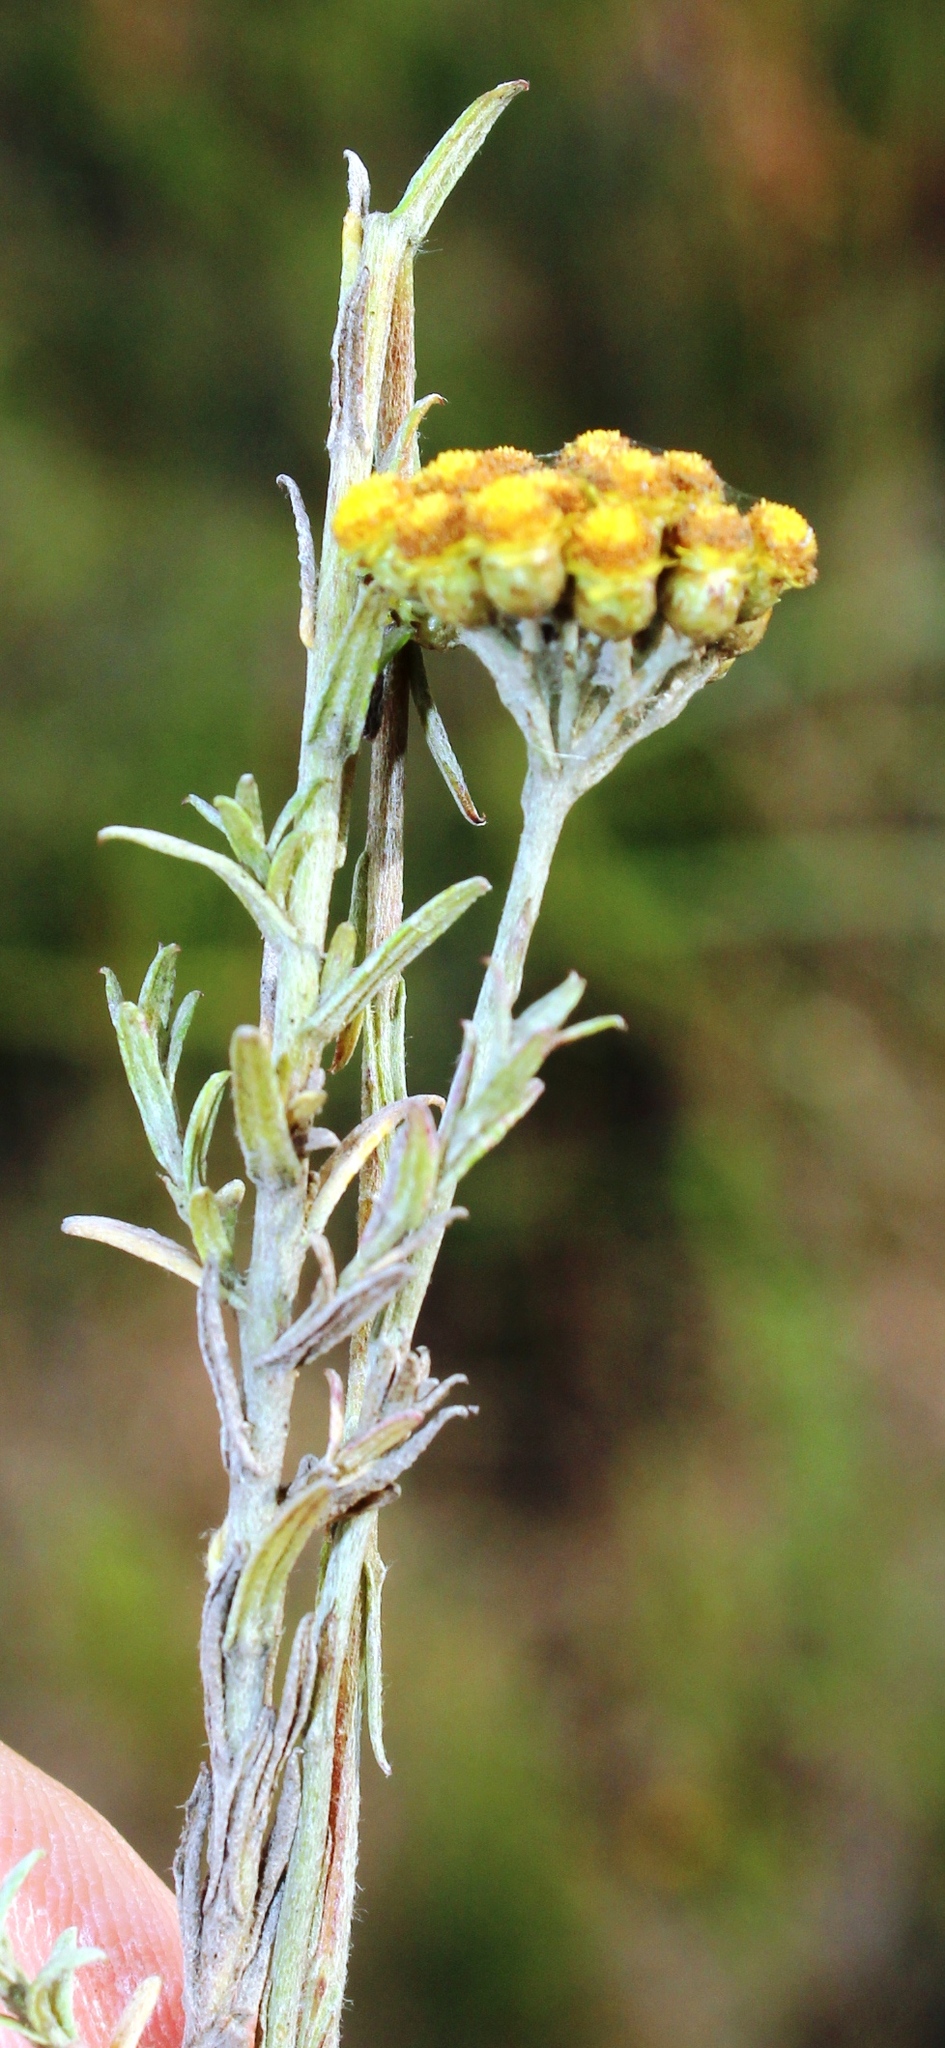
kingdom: Plantae
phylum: Tracheophyta
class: Magnoliopsida
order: Asterales
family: Asteraceae
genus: Helichrysum
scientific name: Helichrysum anomalum
